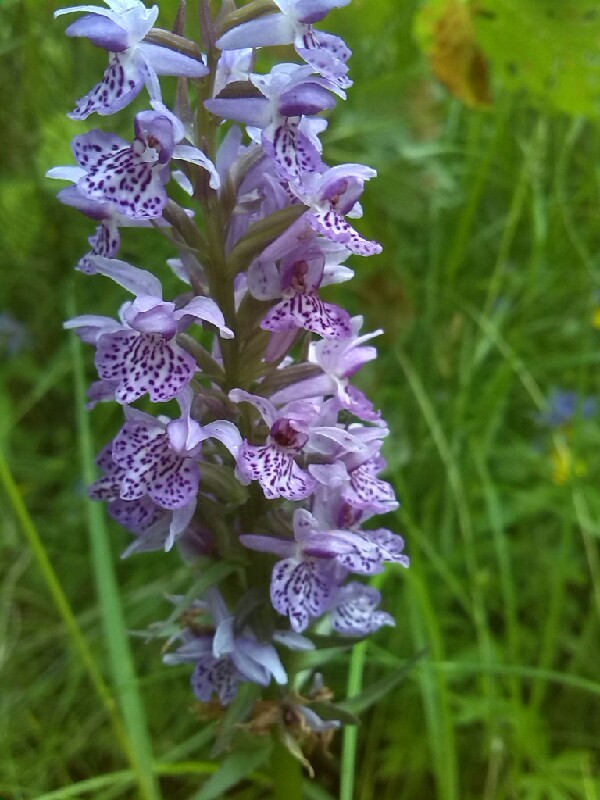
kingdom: Plantae
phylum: Tracheophyta
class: Liliopsida
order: Asparagales
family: Orchidaceae
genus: Dactylorhiza
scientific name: Dactylorhiza maculata
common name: Heath spotted-orchid
